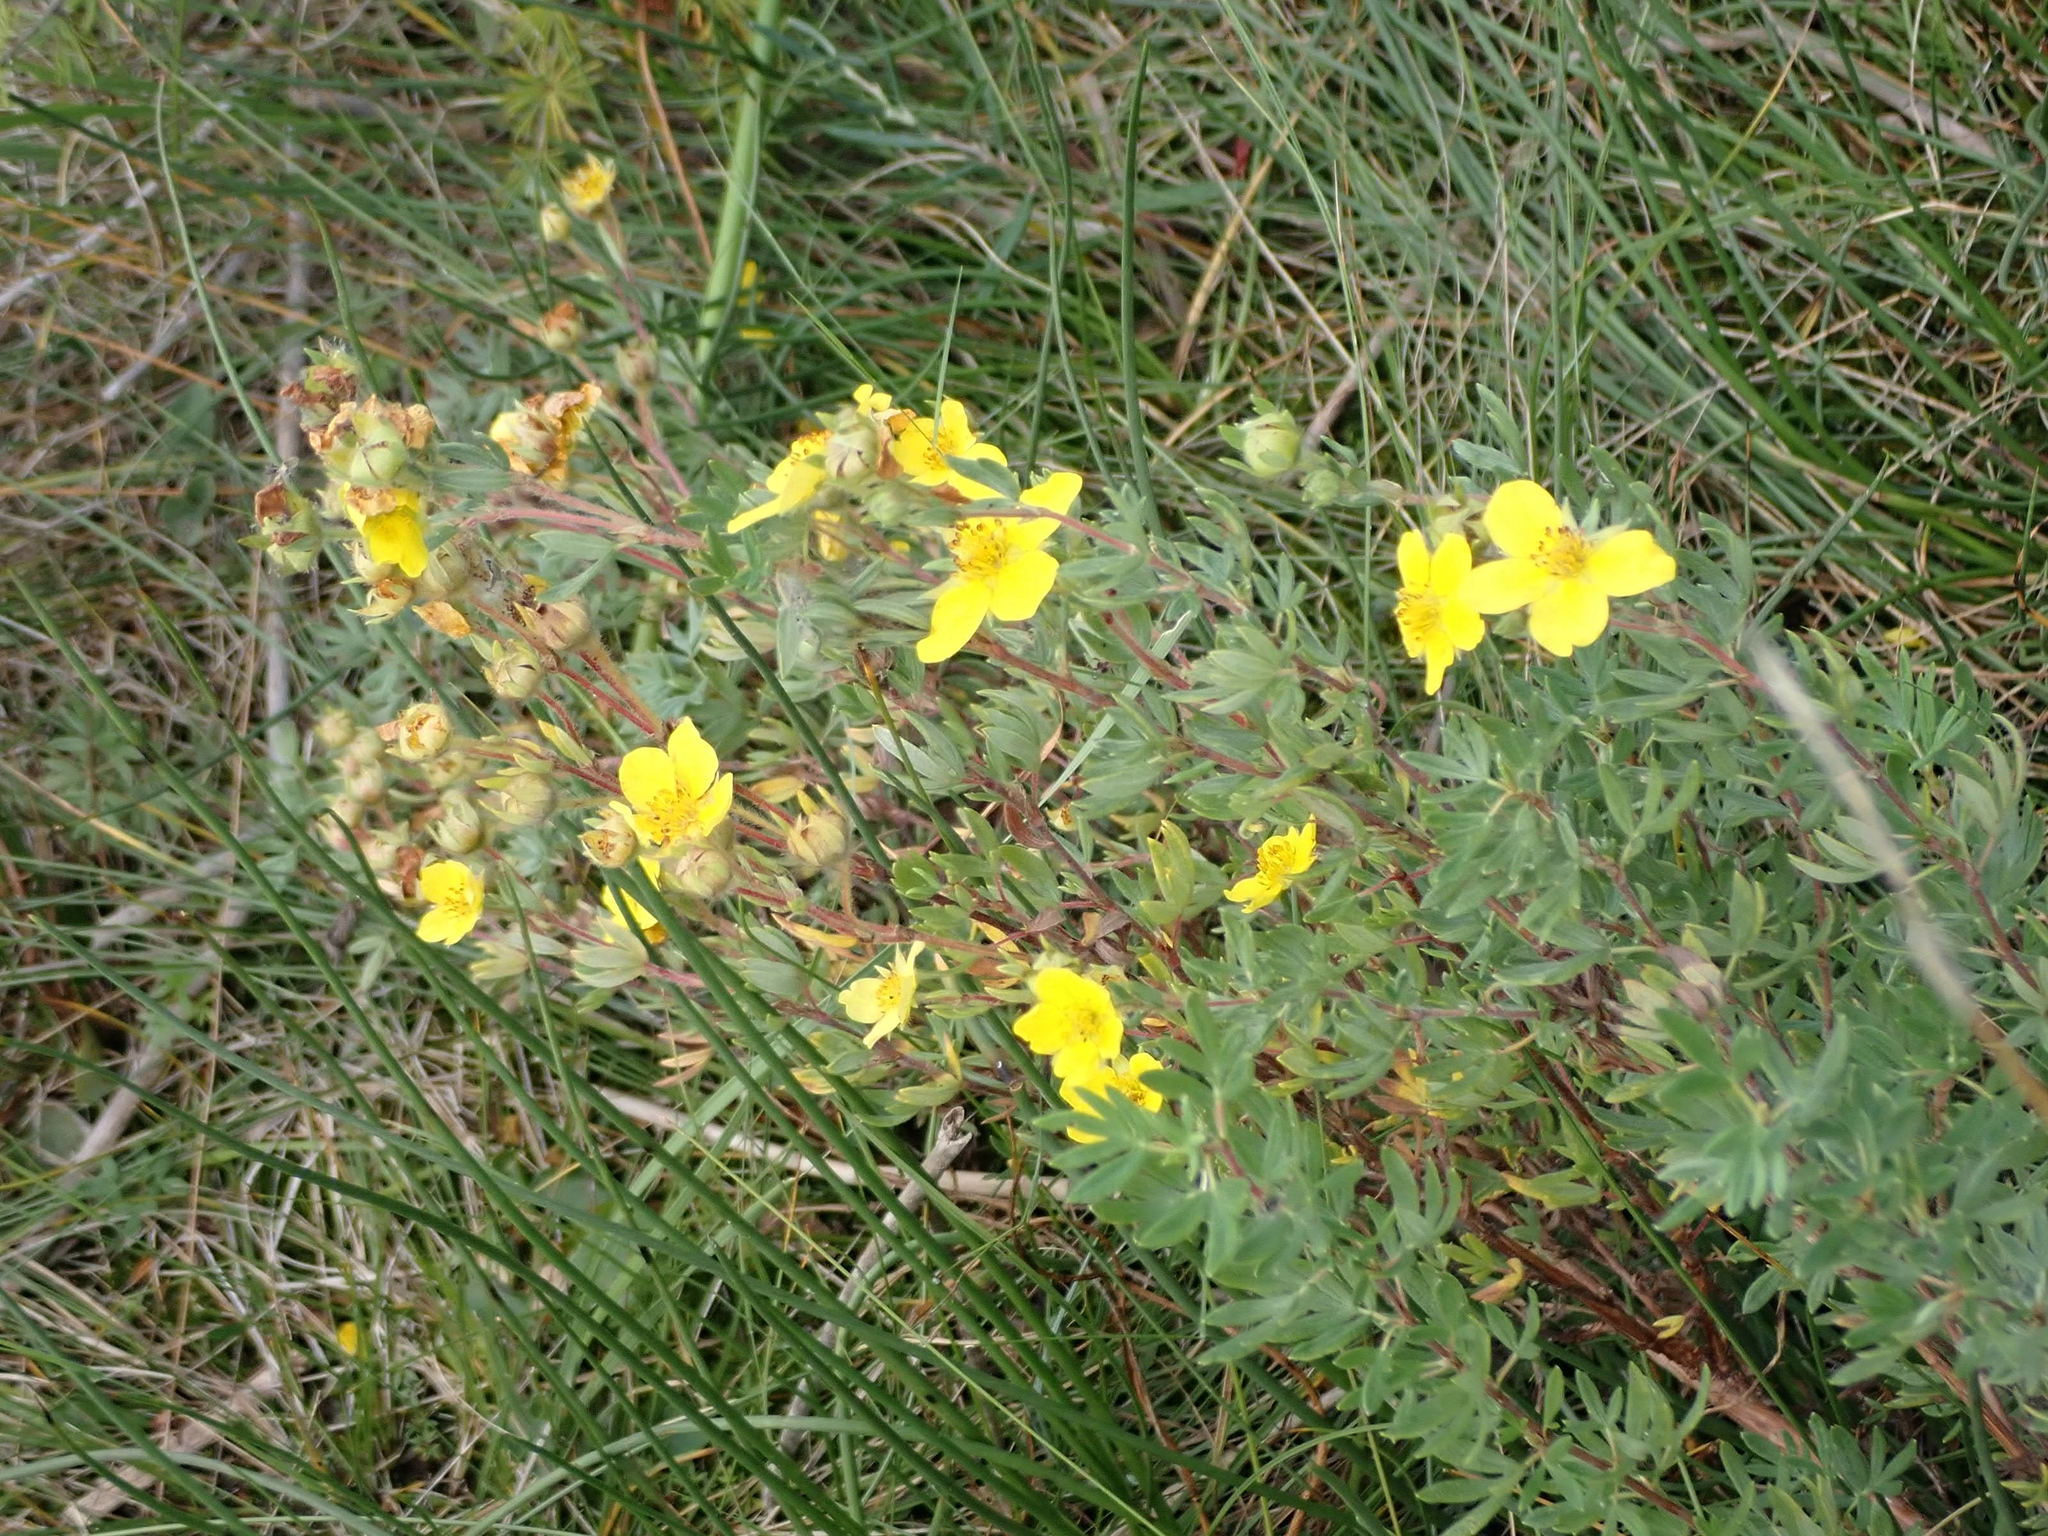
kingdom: Plantae
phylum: Tracheophyta
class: Magnoliopsida
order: Rosales
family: Rosaceae
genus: Dasiphora
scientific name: Dasiphora fruticosa
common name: Shrubby cinquefoil
